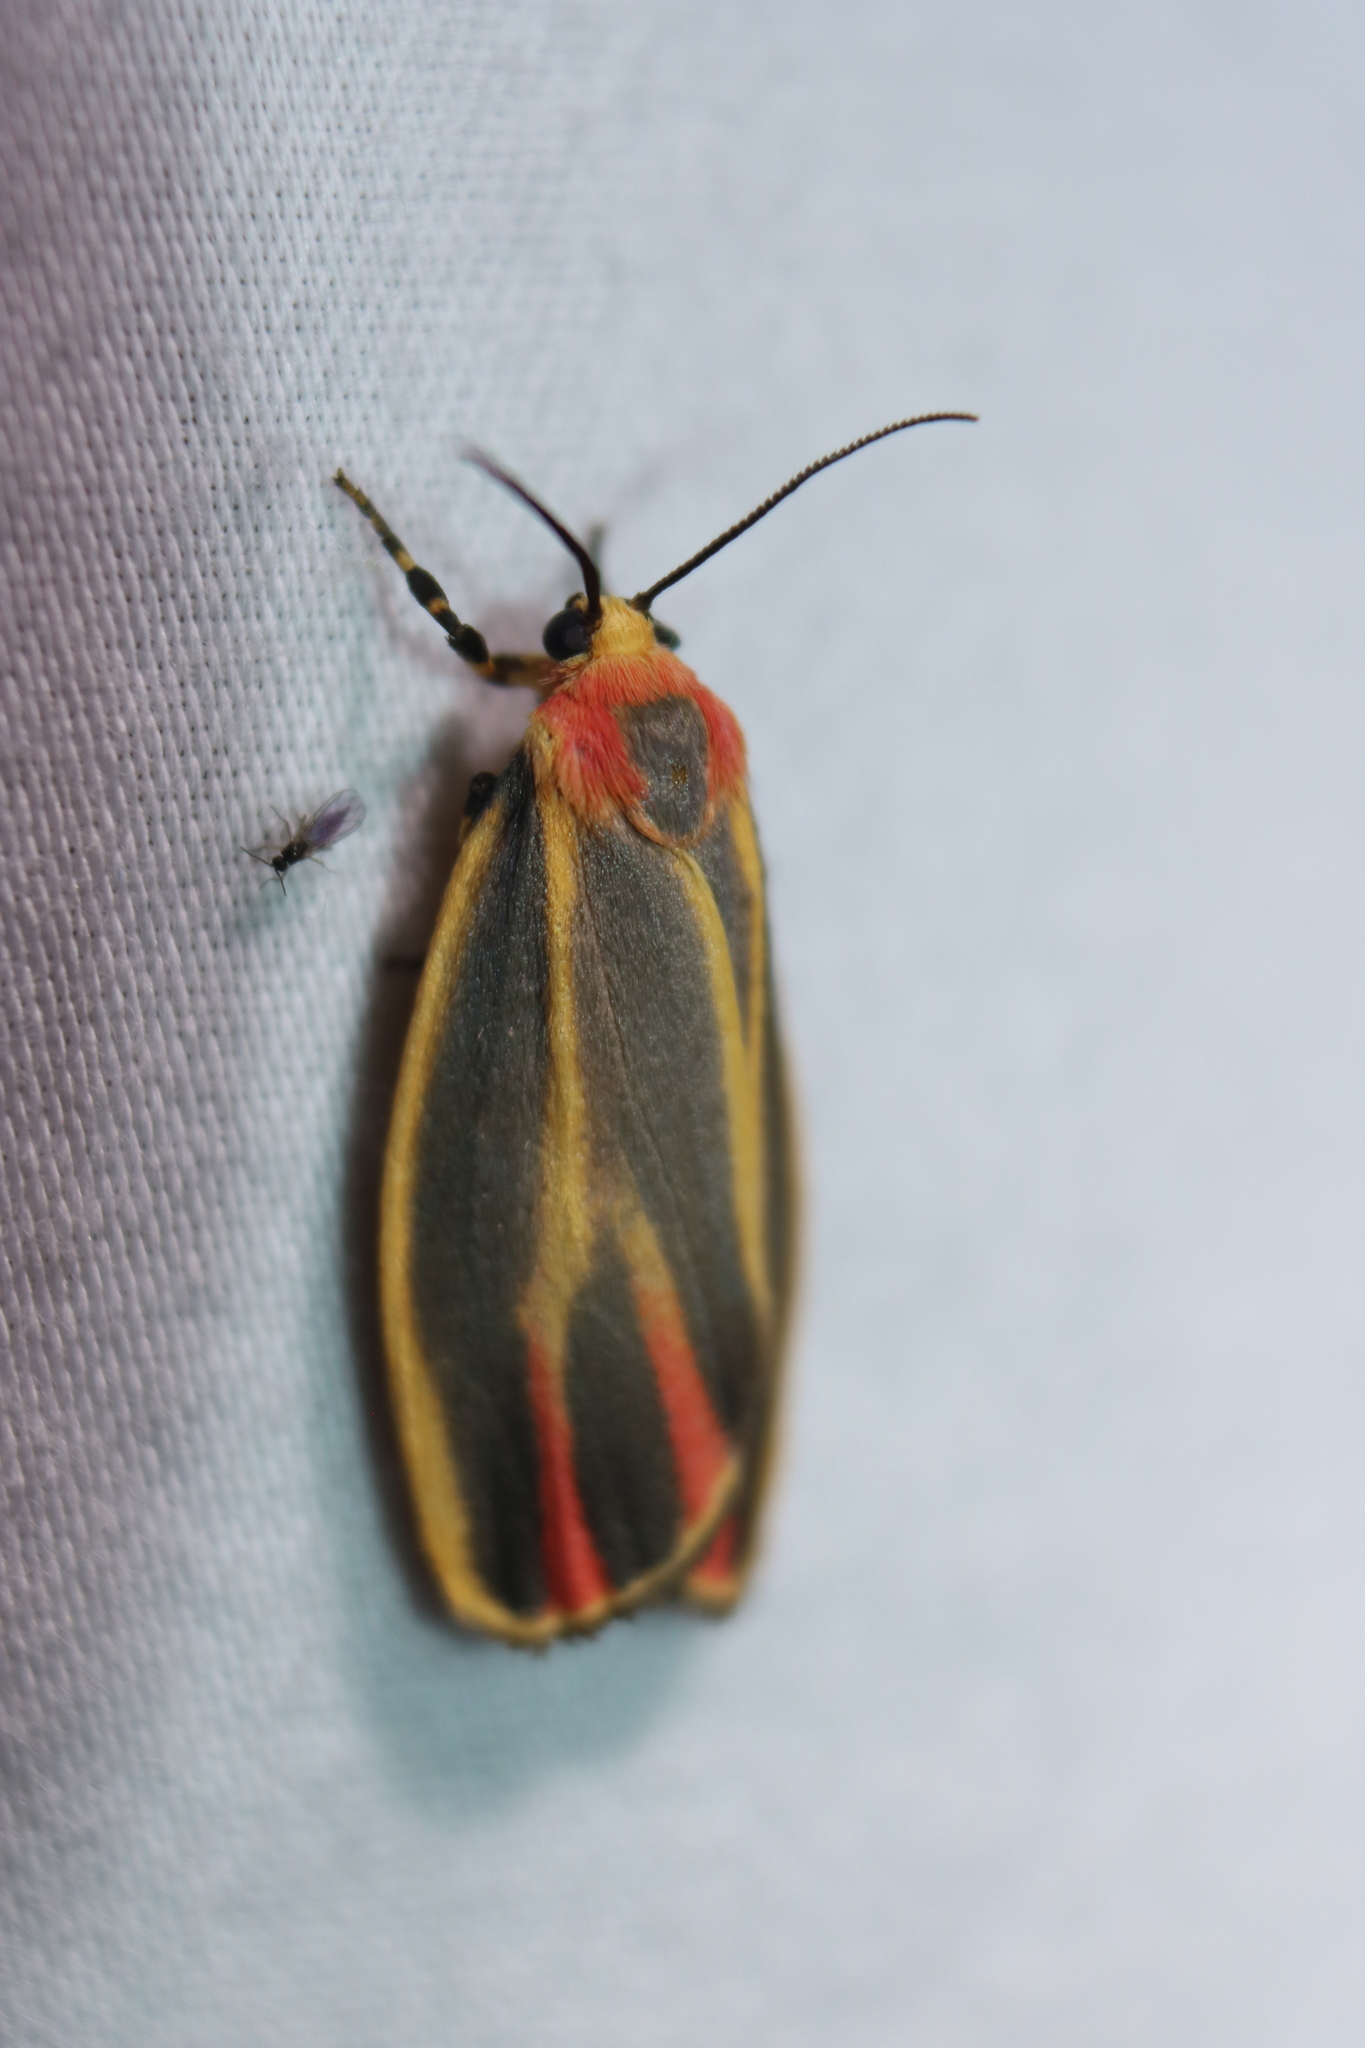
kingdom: Animalia
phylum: Arthropoda
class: Insecta
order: Lepidoptera
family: Erebidae
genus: Hypoprepia
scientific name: Hypoprepia fucosa
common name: Painted lichen moth
